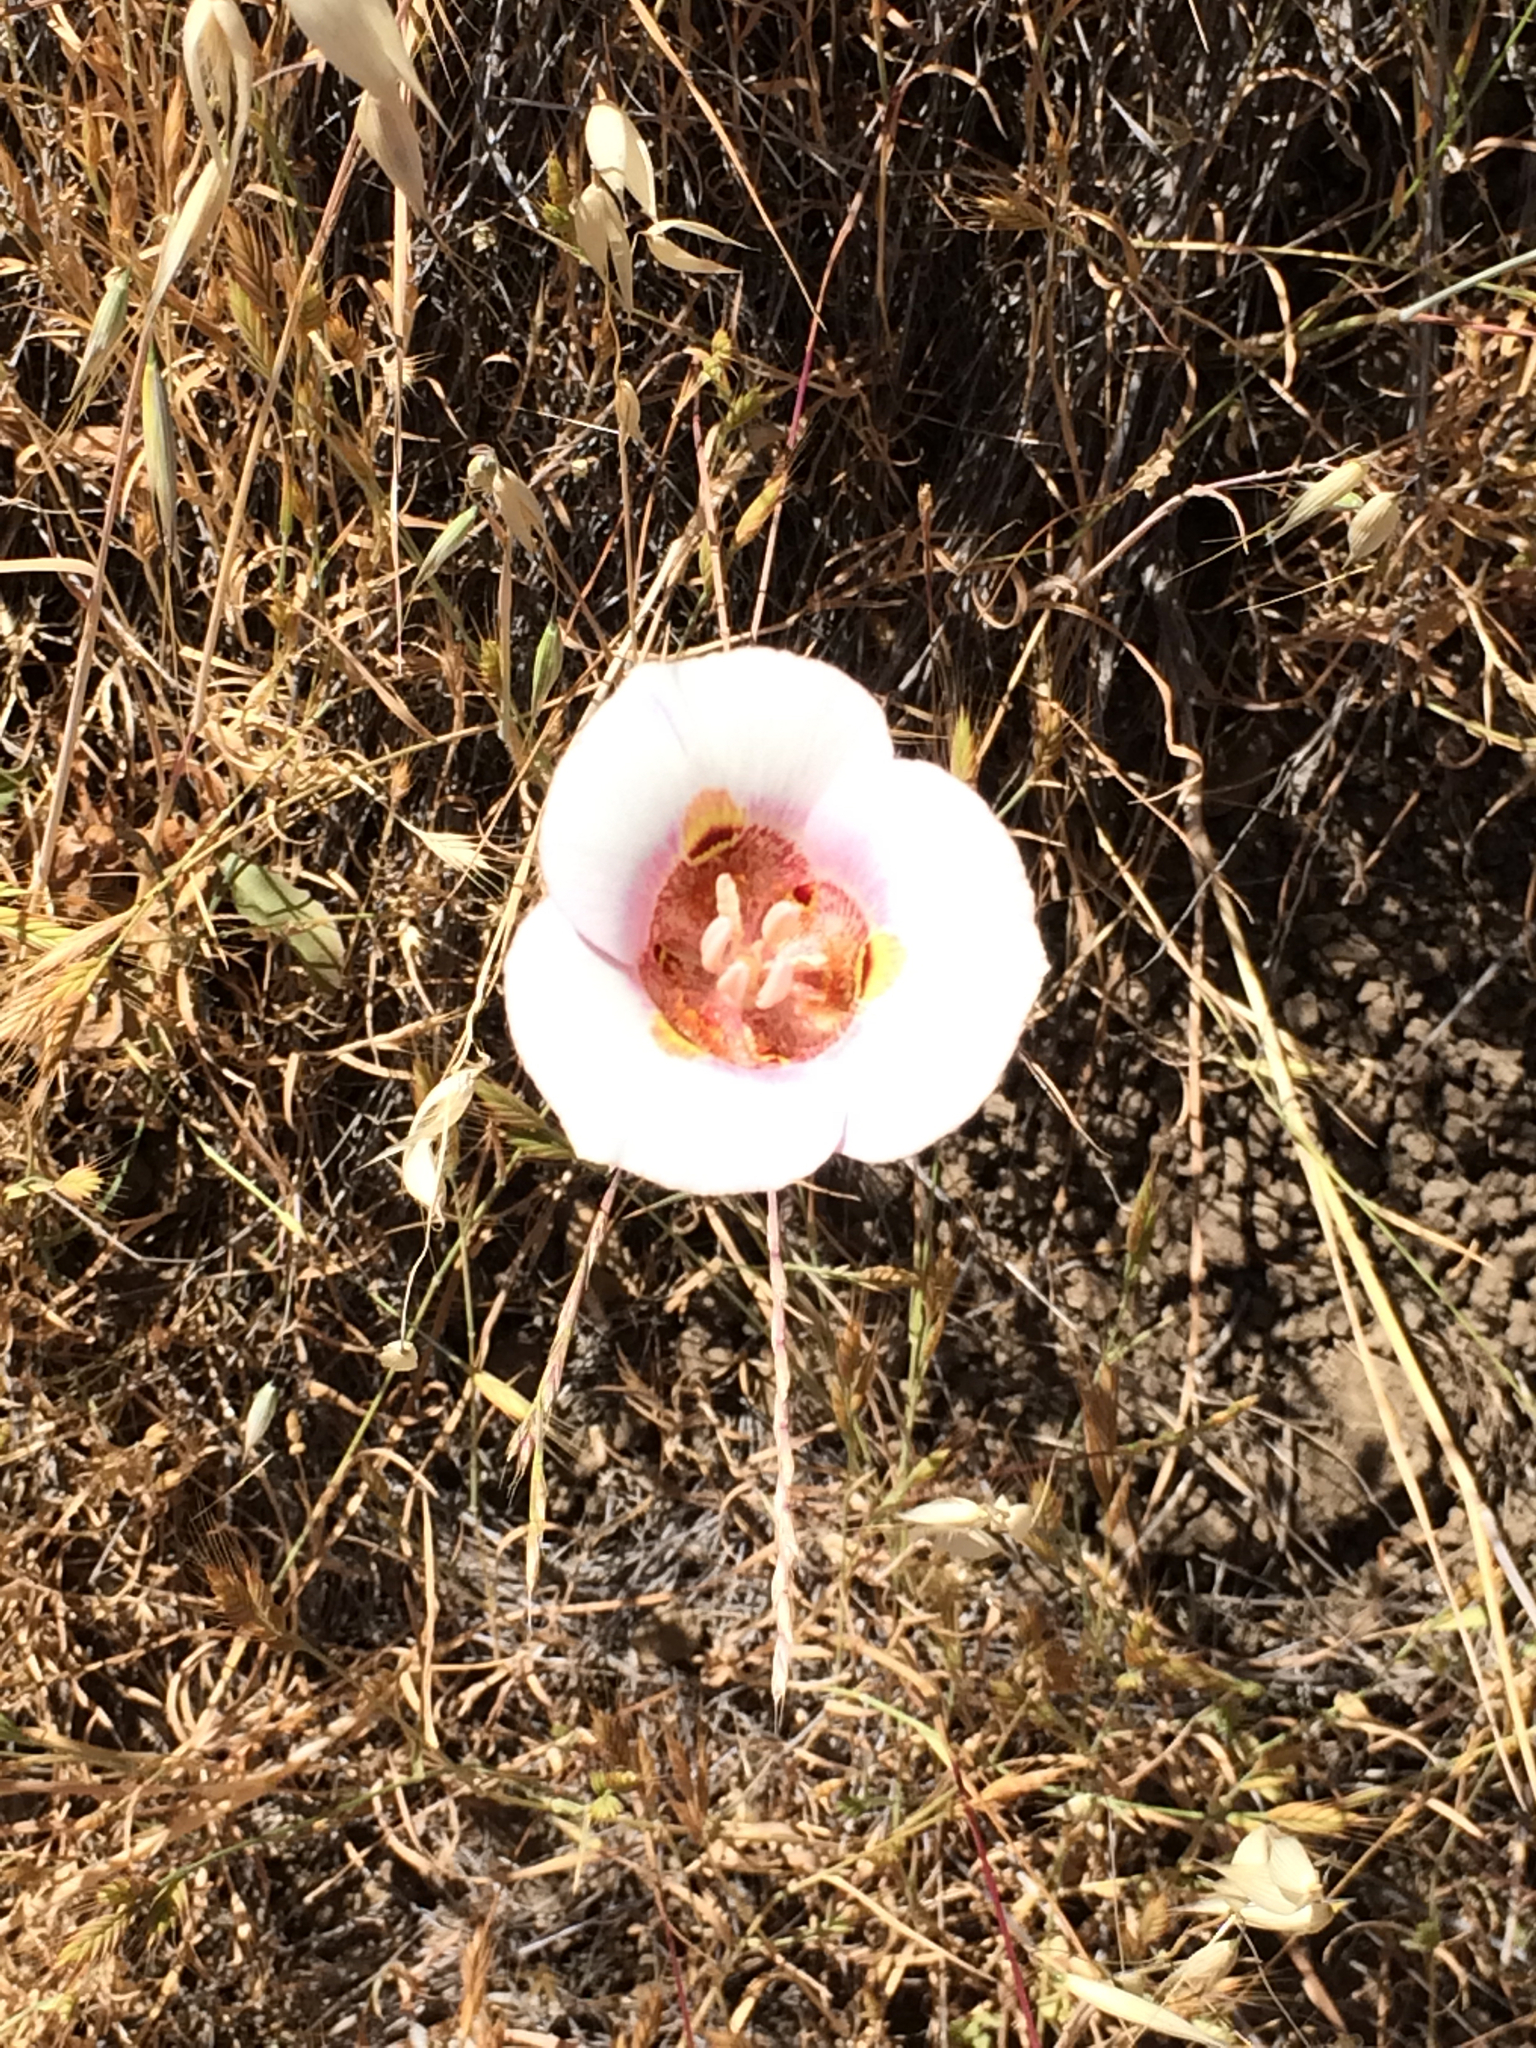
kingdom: Plantae
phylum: Tracheophyta
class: Liliopsida
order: Liliales
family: Liliaceae
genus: Calochortus
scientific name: Calochortus argillosus
